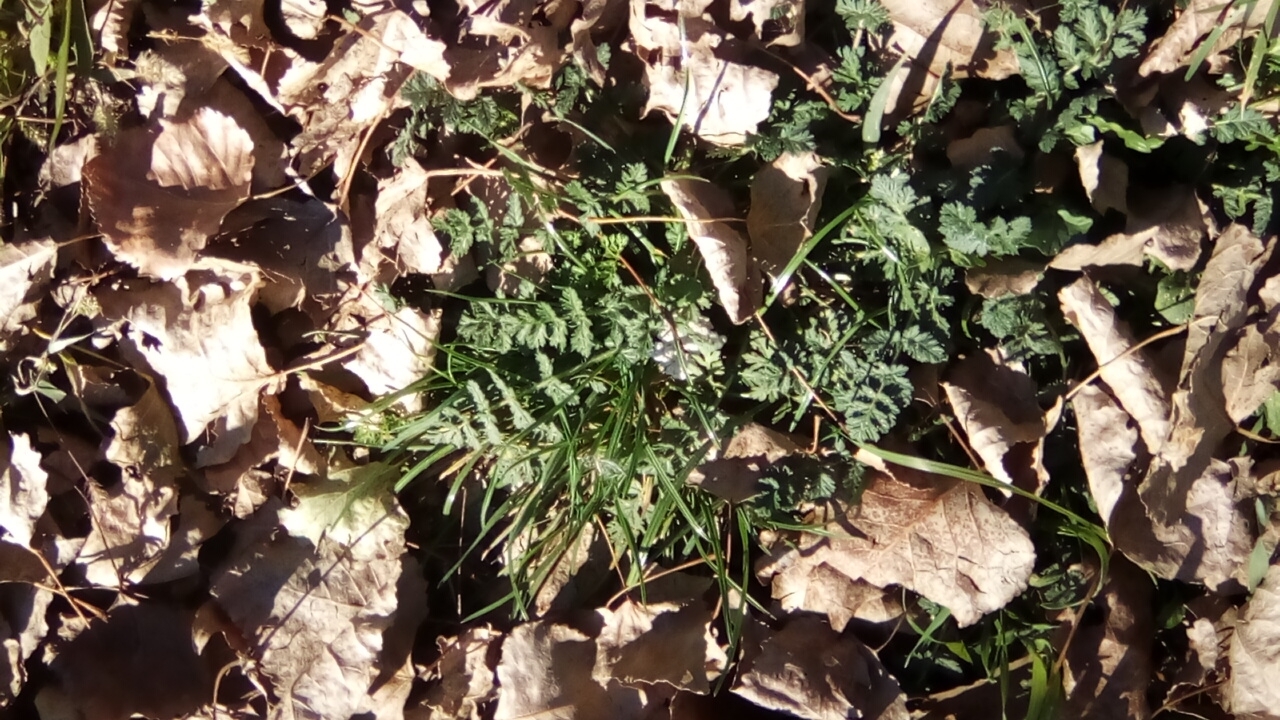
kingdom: Plantae
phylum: Tracheophyta
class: Magnoliopsida
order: Geraniales
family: Geraniaceae
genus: Erodium
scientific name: Erodium cicutarium
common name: Common stork's-bill
